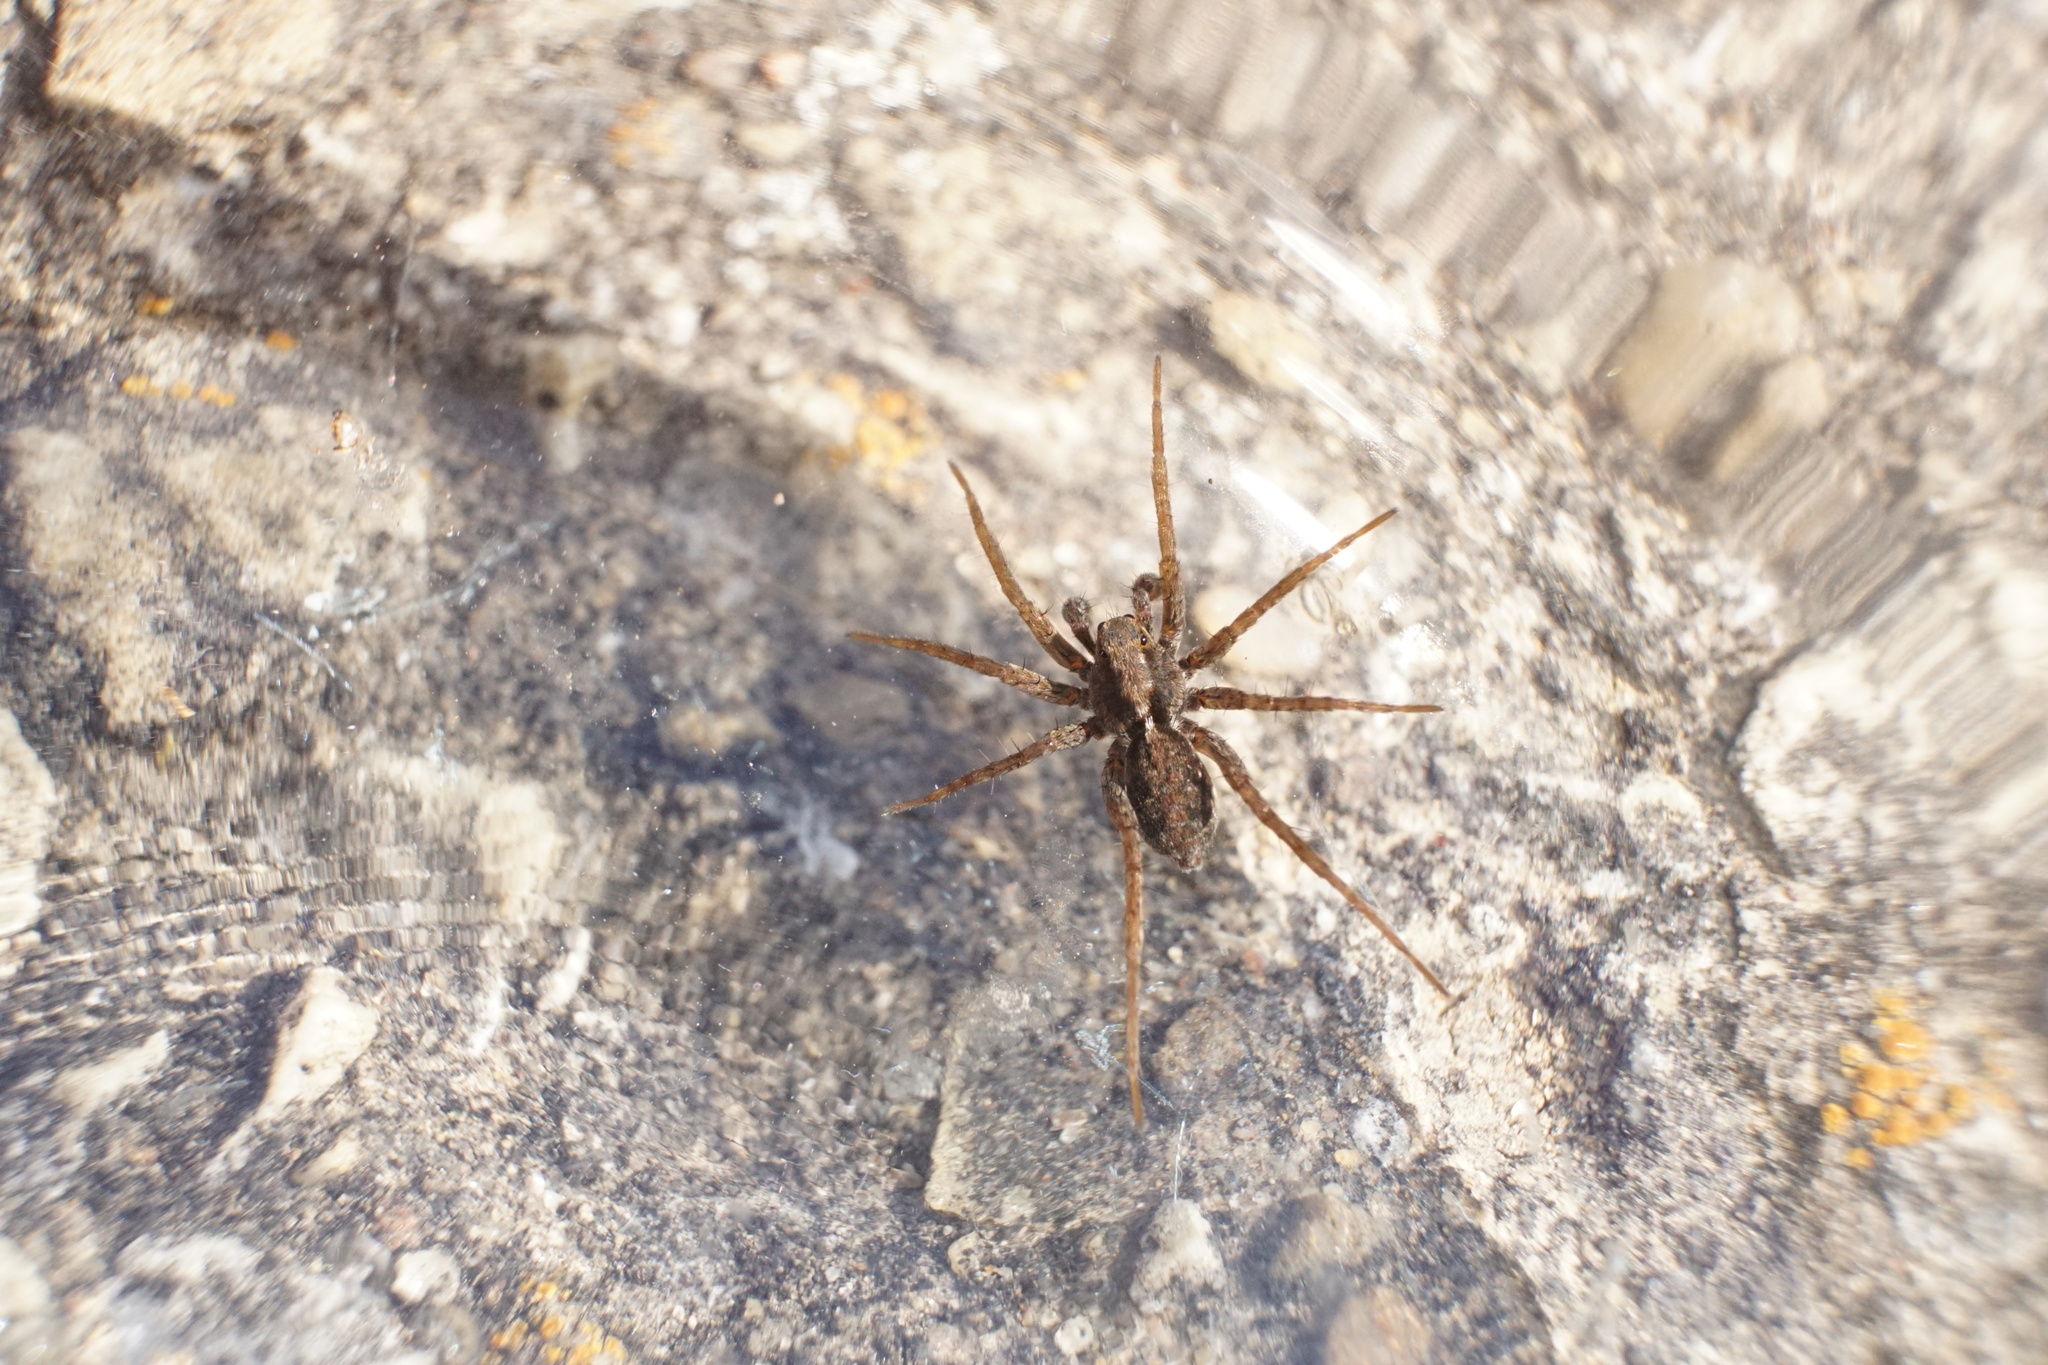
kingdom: Animalia
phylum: Arthropoda
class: Arachnida
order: Araneae
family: Lycosidae
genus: Pardosa
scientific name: Pardosa milvina
